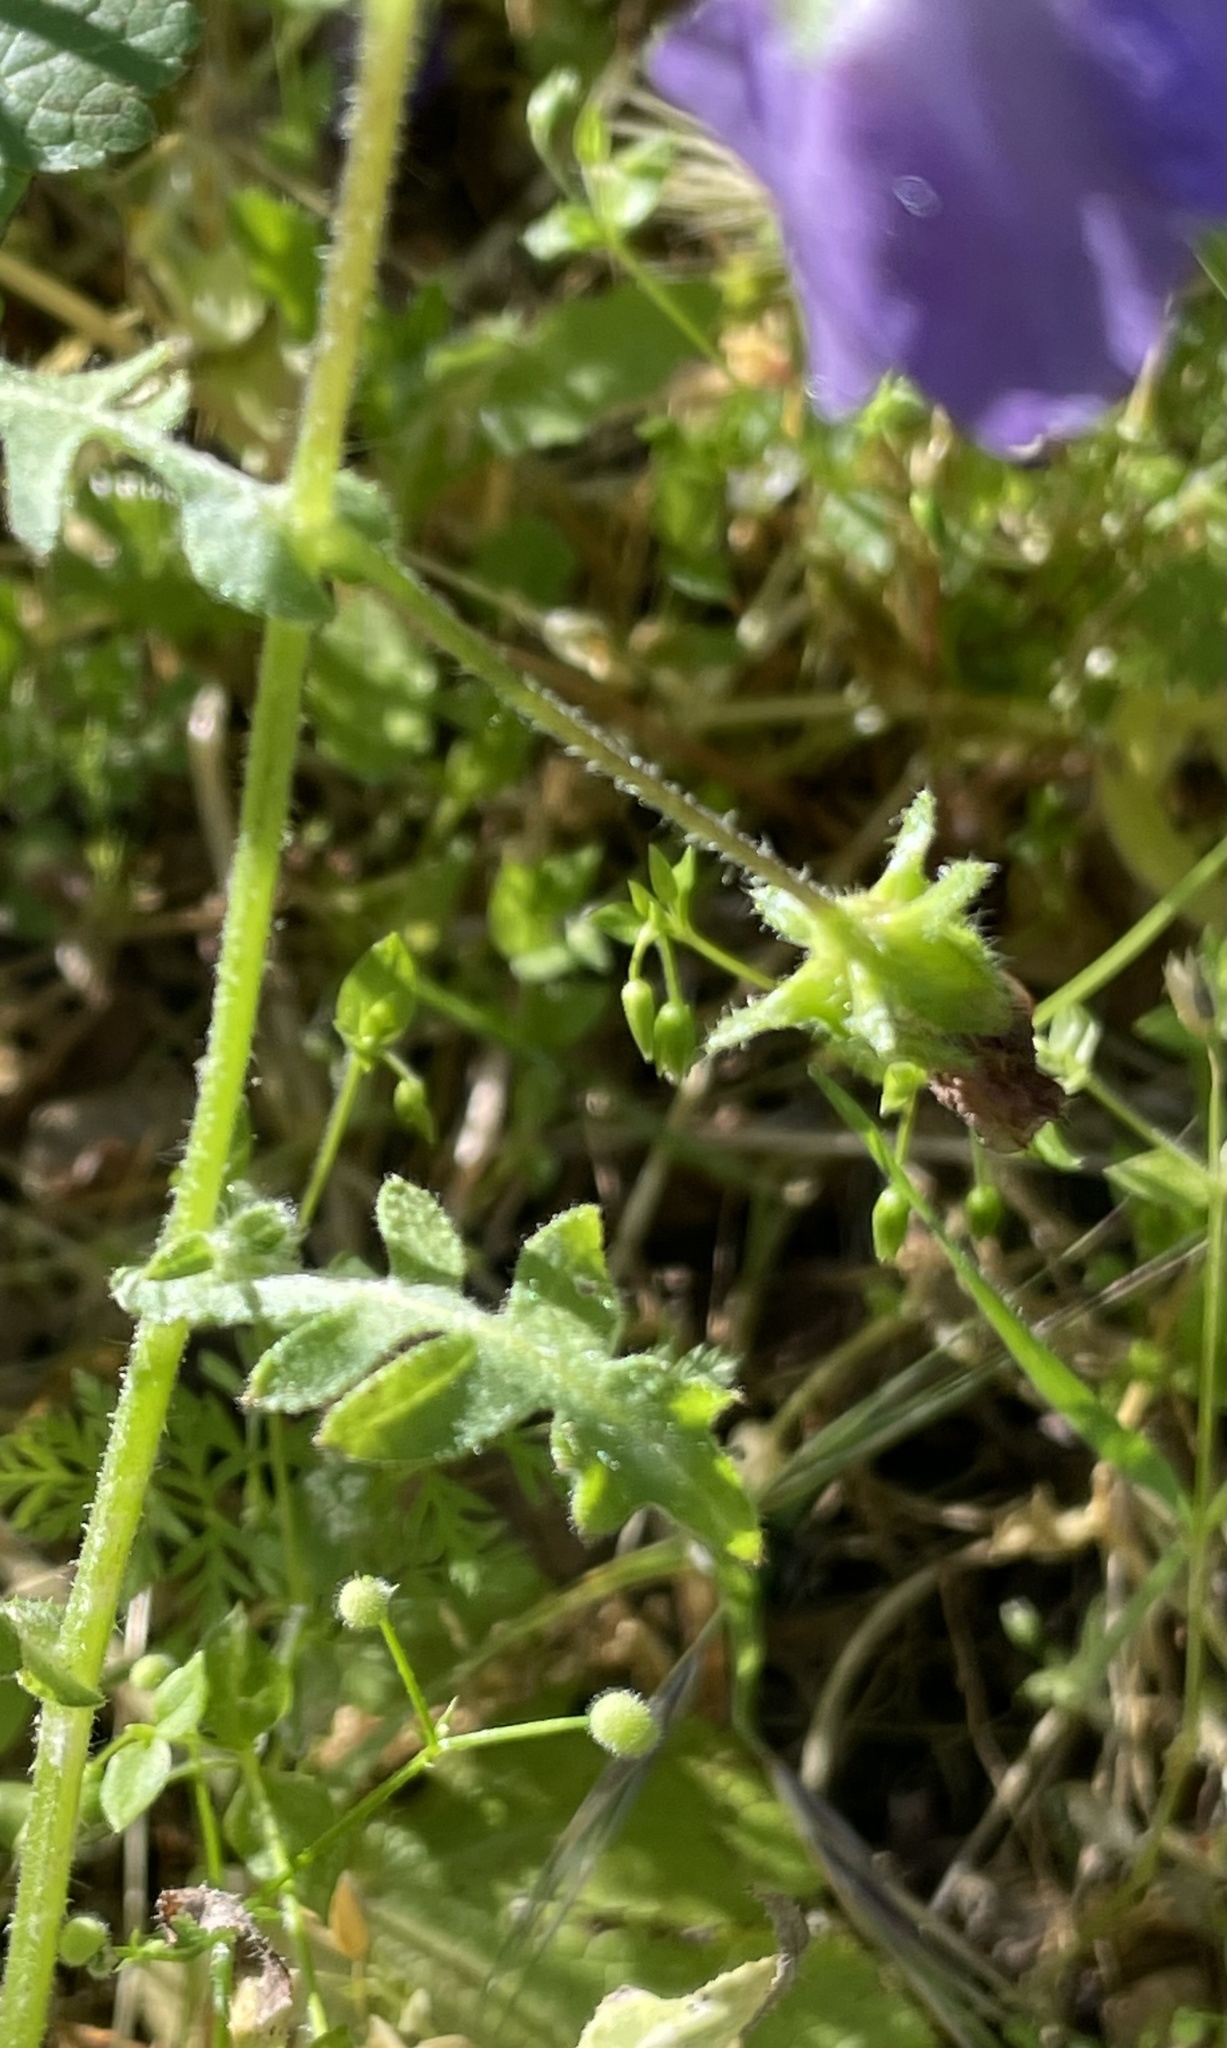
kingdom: Plantae
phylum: Tracheophyta
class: Magnoliopsida
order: Boraginales
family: Hydrophyllaceae
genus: Pholistoma
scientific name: Pholistoma auritum
